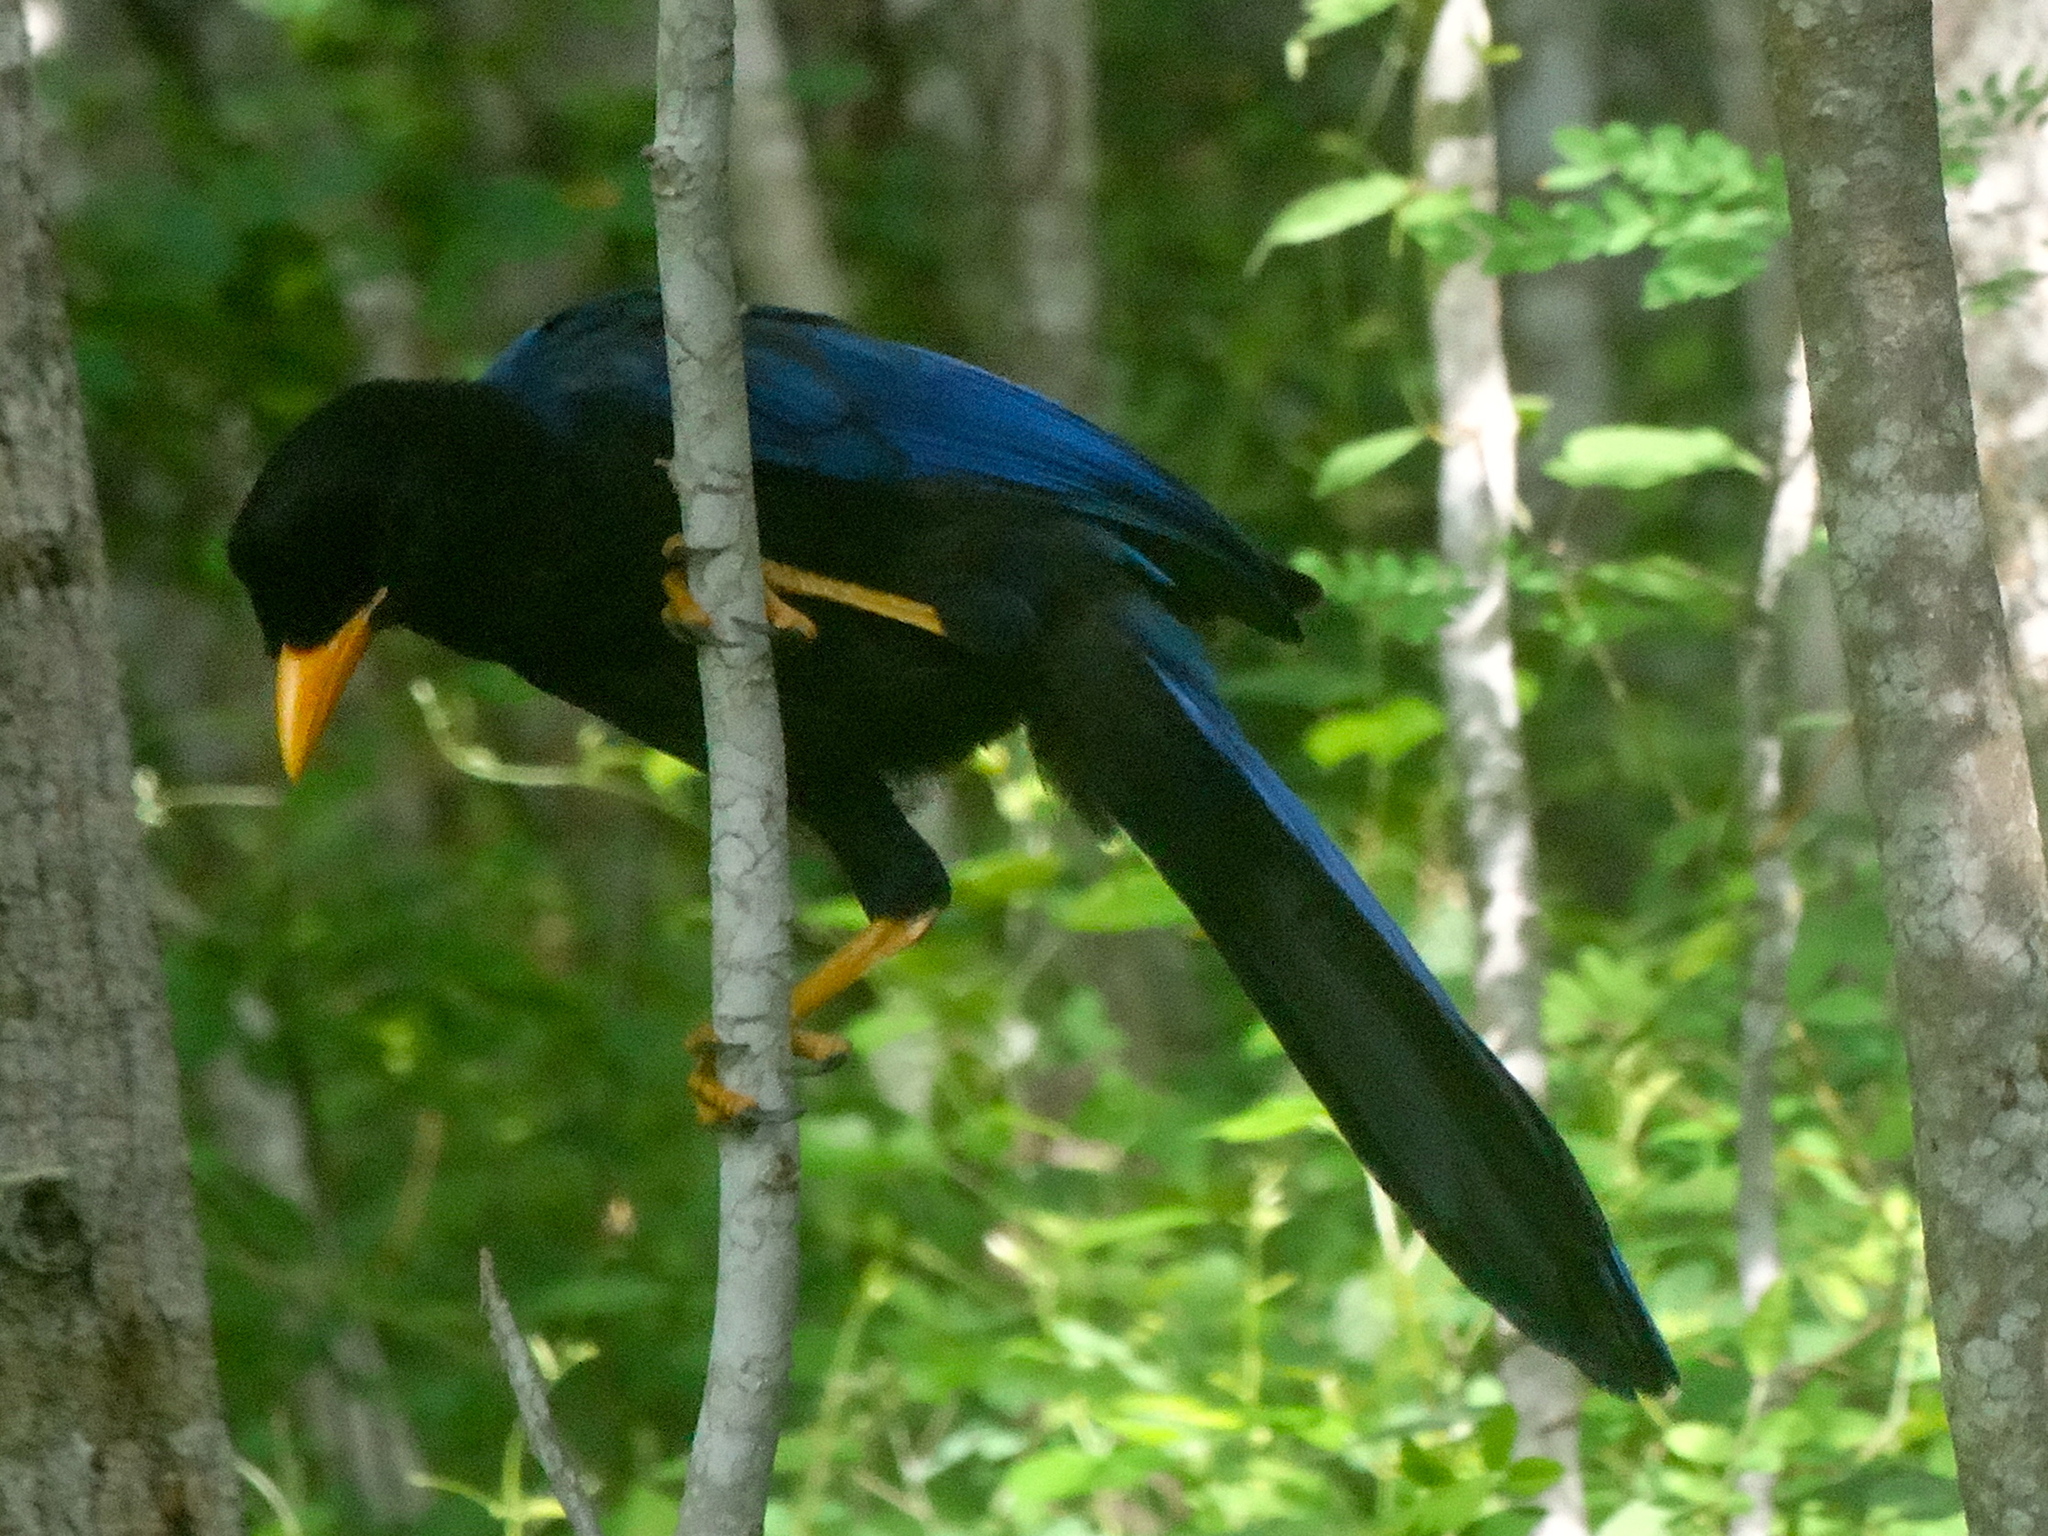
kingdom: Animalia
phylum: Chordata
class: Aves
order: Passeriformes
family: Corvidae
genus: Cyanocorax
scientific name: Cyanocorax beecheii
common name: Purplish-backed jay
